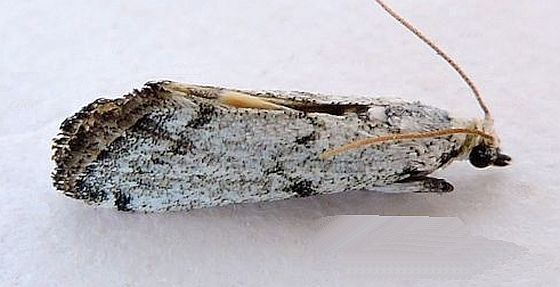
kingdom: Animalia
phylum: Arthropoda
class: Insecta
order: Lepidoptera
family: Pyralidae
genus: Bethulia
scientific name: Bethulia championella
